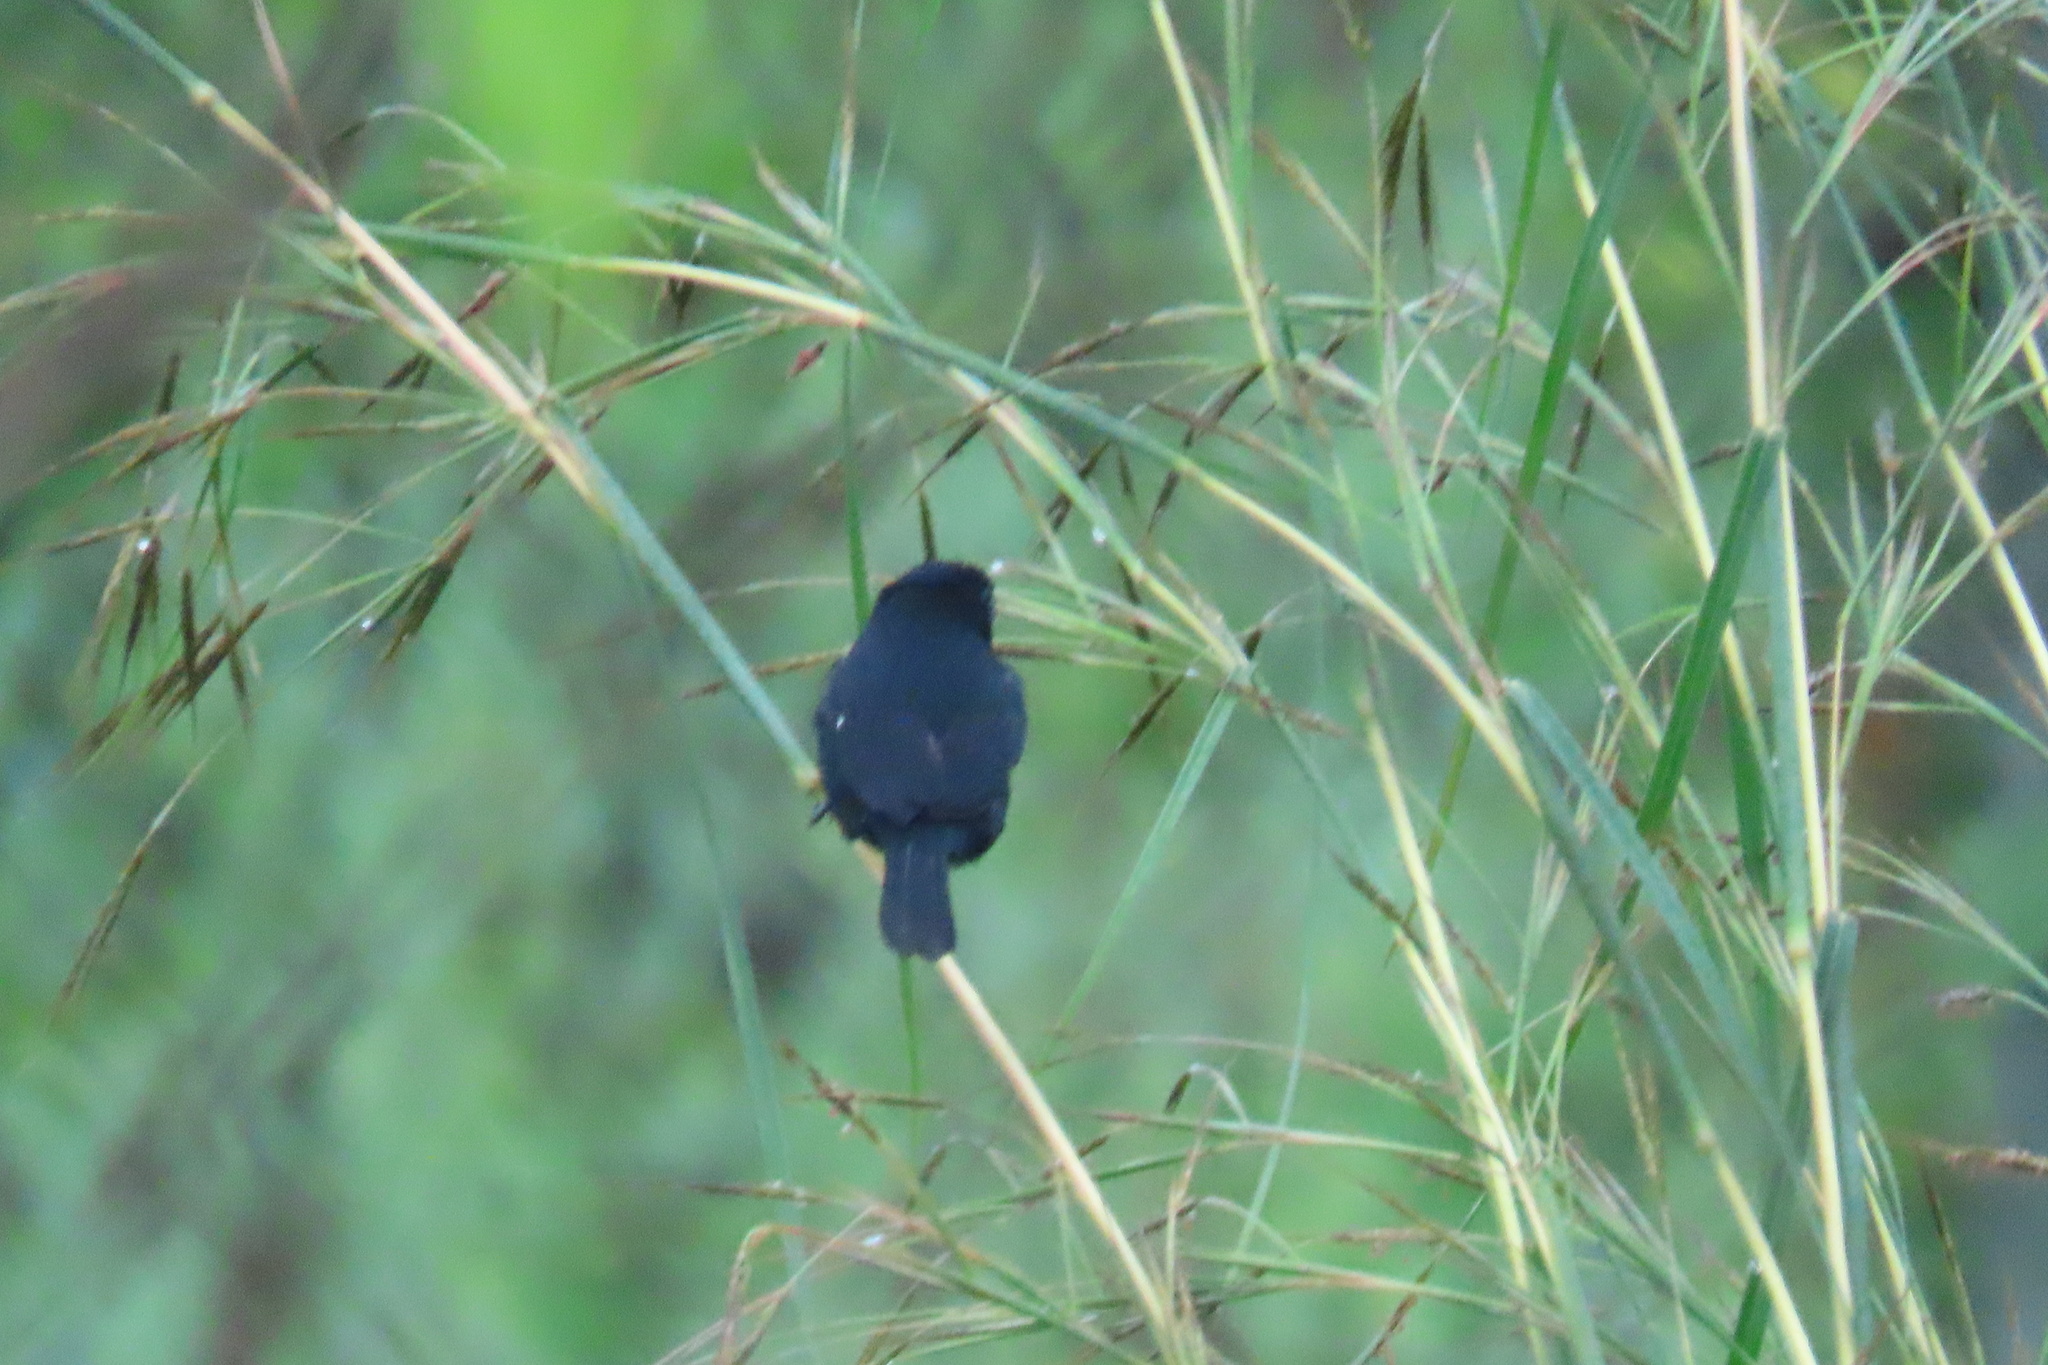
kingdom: Animalia
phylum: Chordata
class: Aves
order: Passeriformes
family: Thraupidae
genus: Sporophila
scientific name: Sporophila corvina
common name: Variable seedeater
